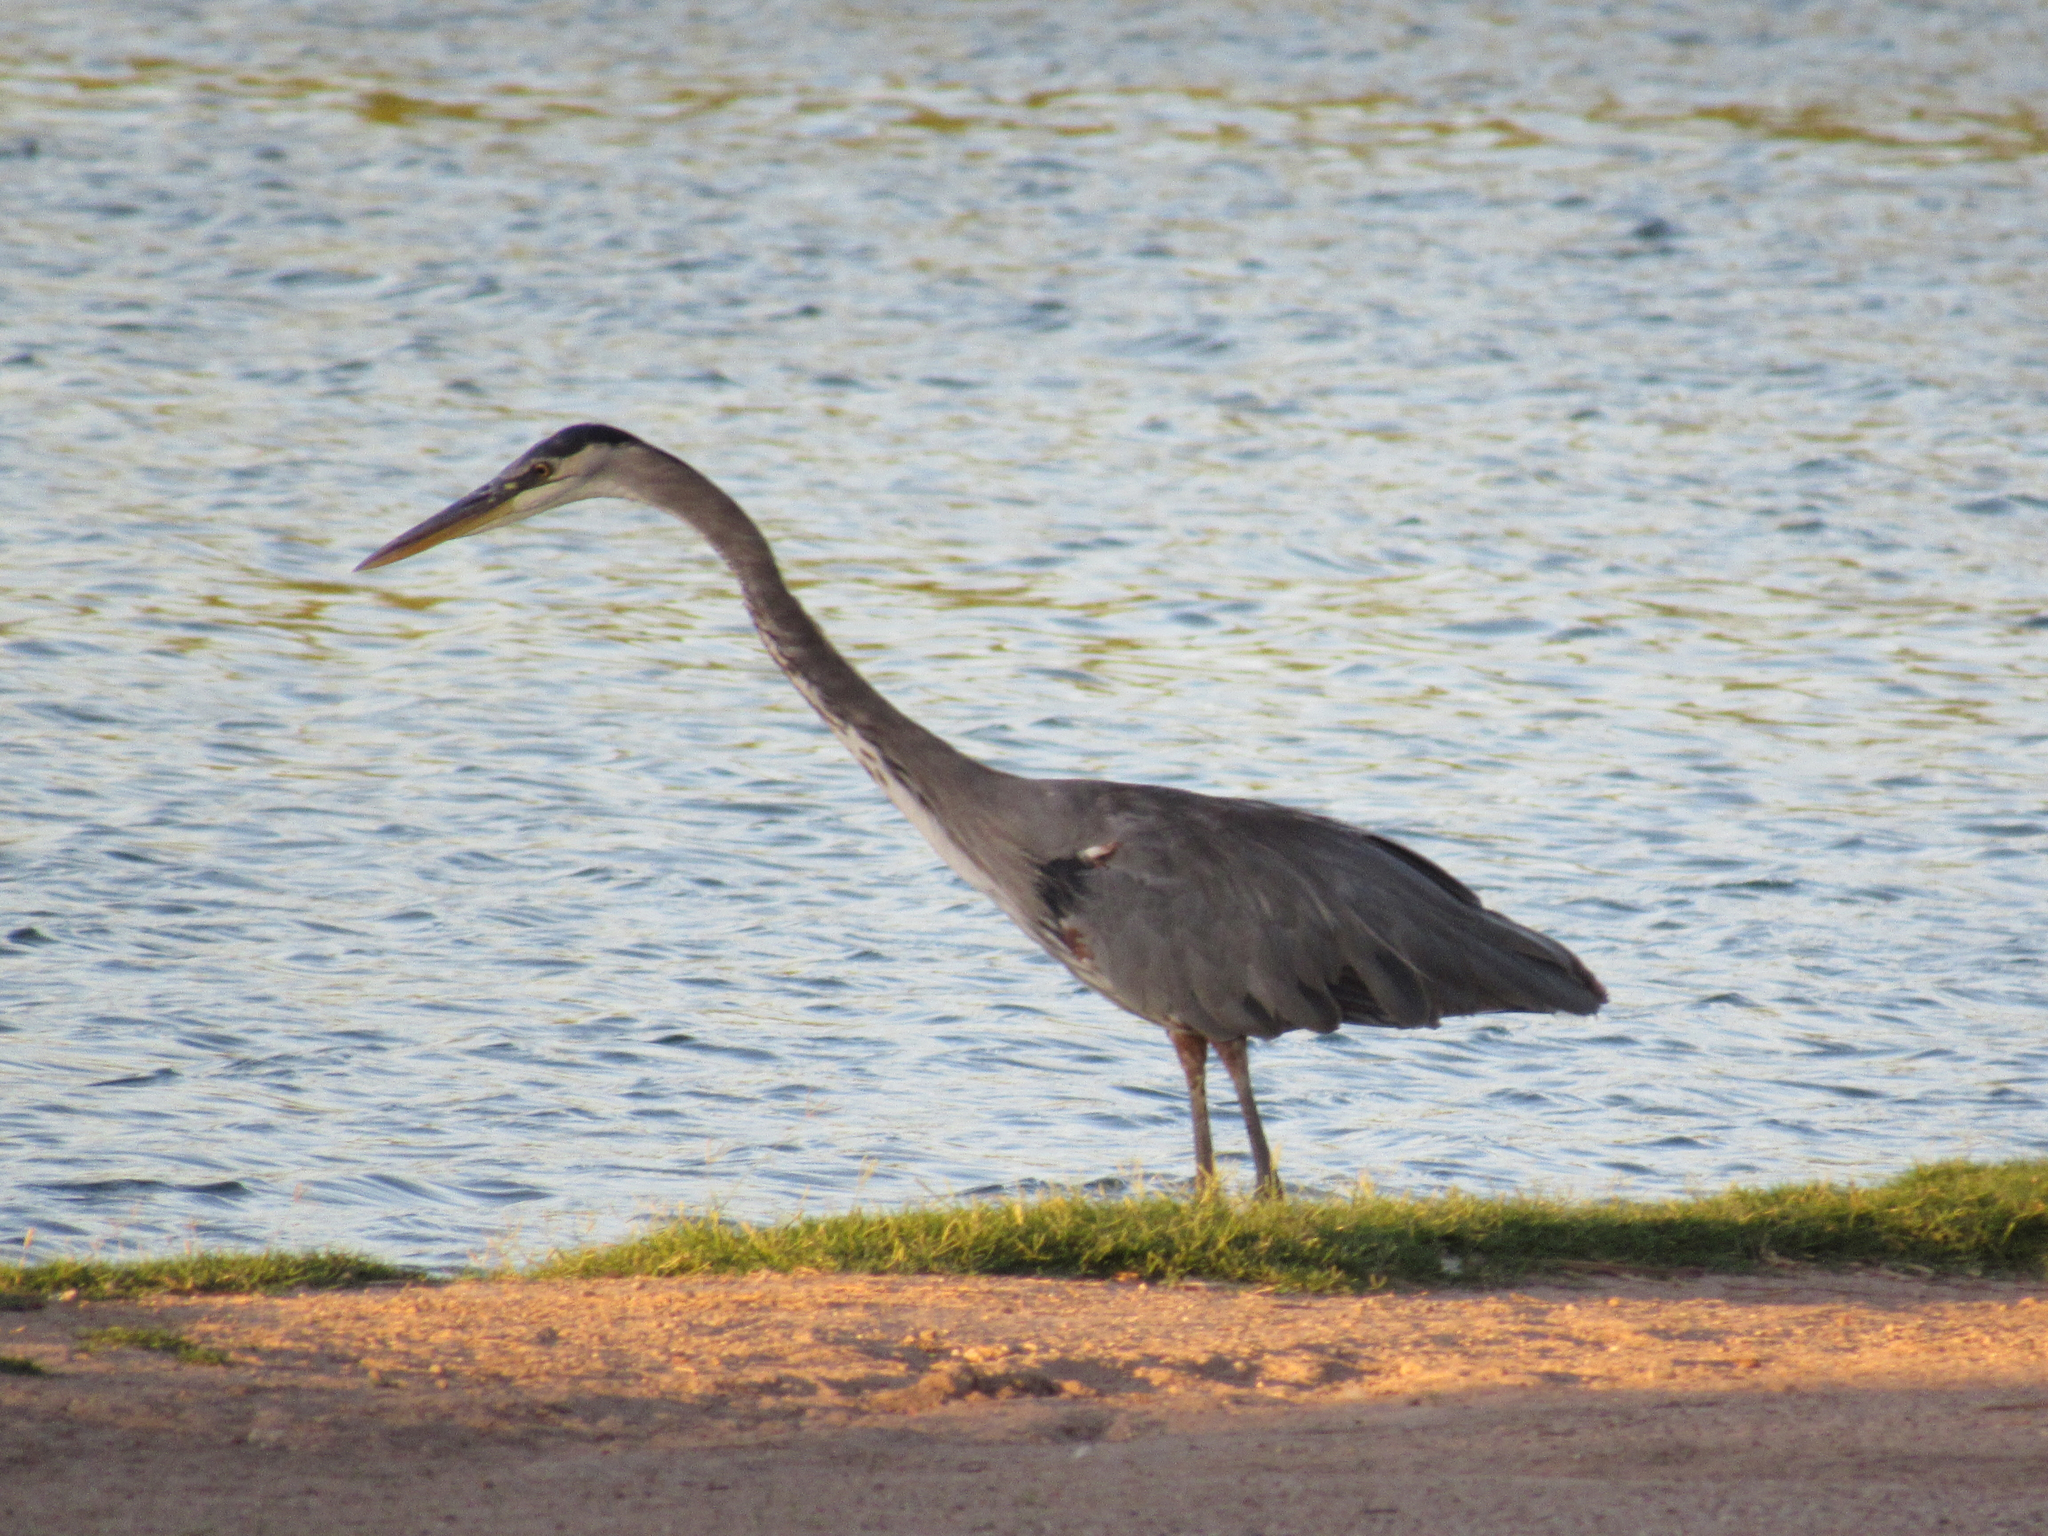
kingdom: Animalia
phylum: Chordata
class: Aves
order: Pelecaniformes
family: Ardeidae
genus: Ardea
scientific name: Ardea herodias
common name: Great blue heron
